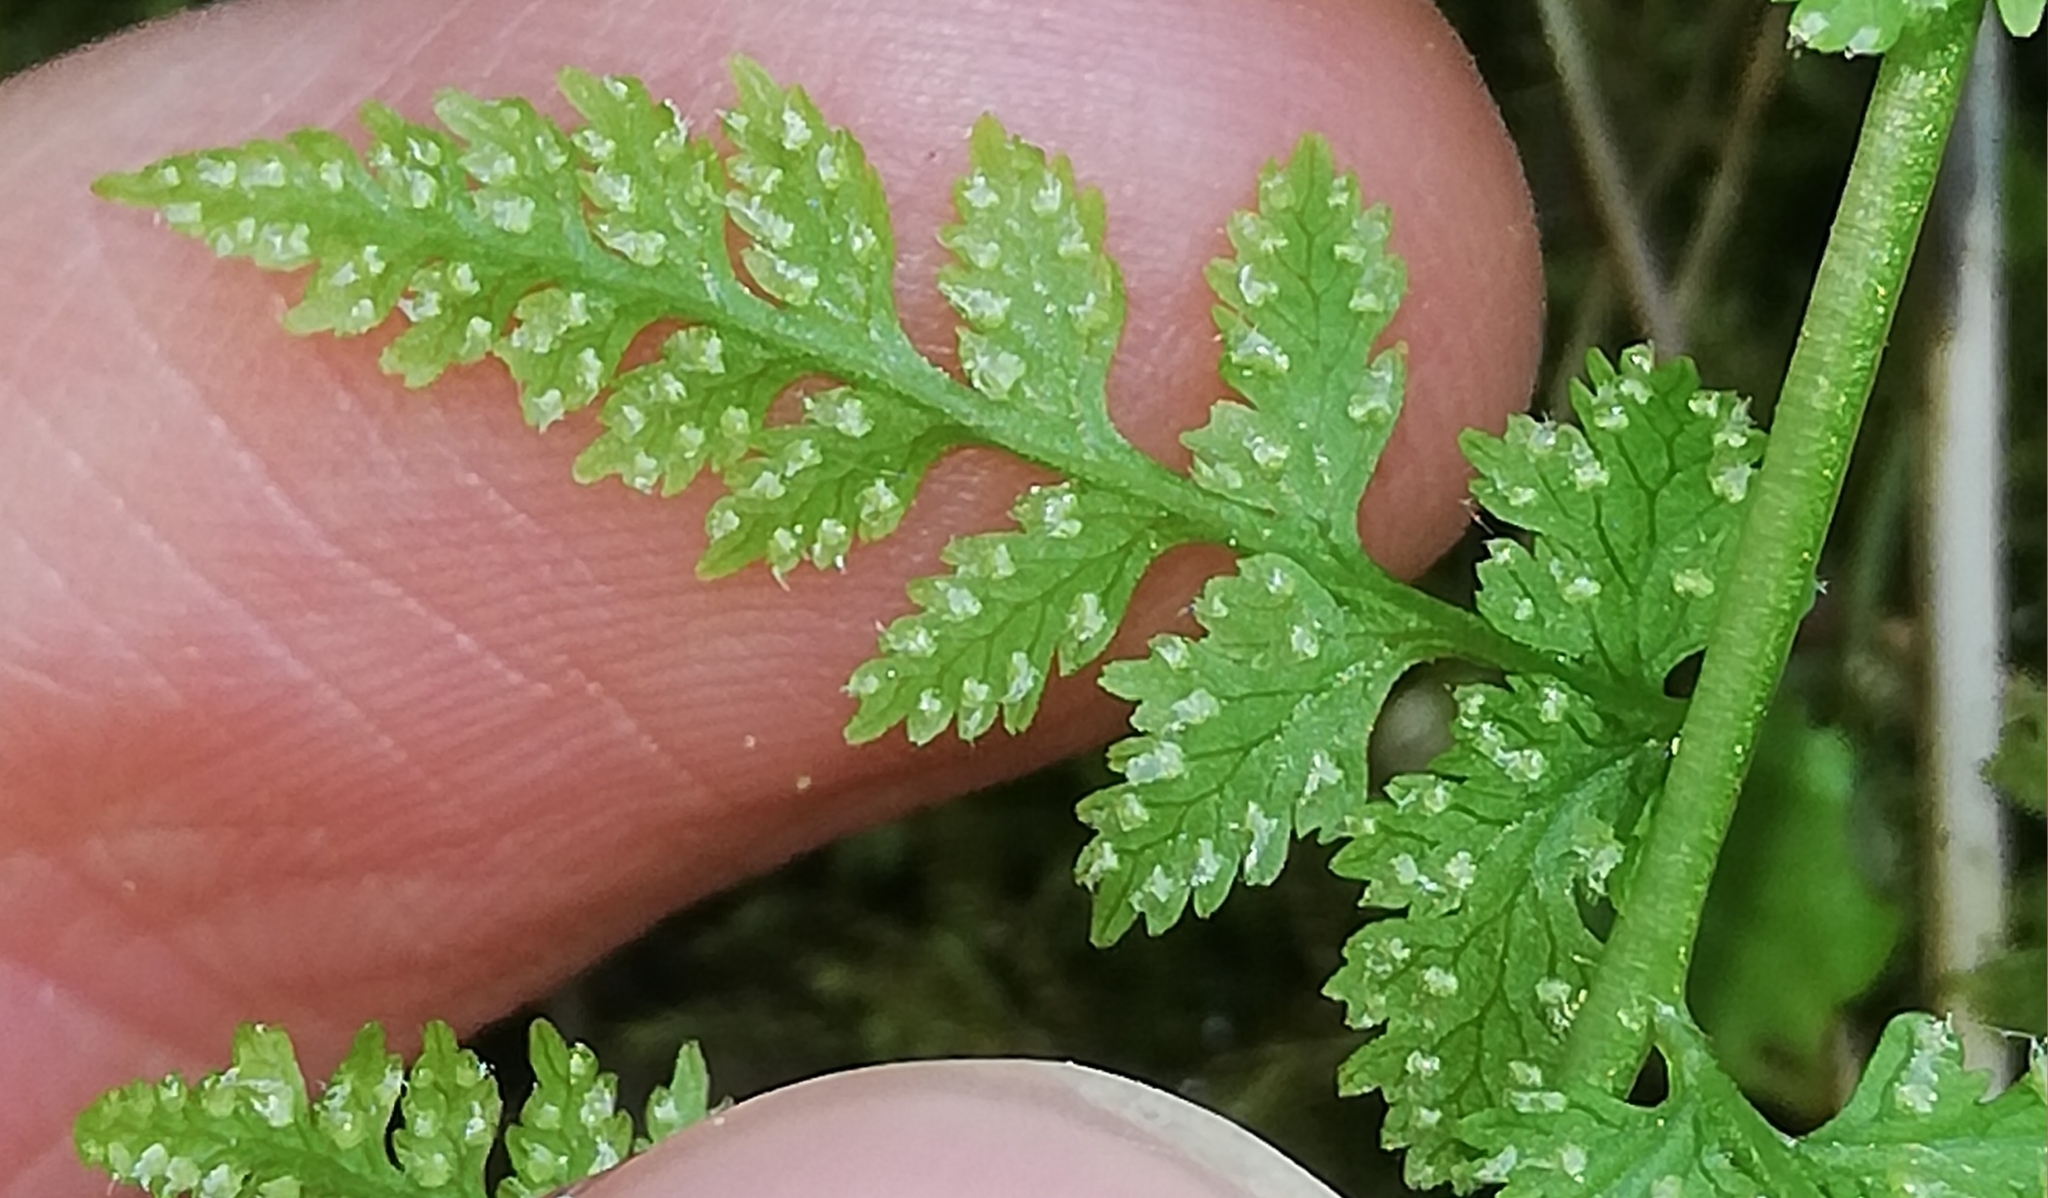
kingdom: Plantae
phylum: Tracheophyta
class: Polypodiopsida
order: Polypodiales
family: Cystopteridaceae
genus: Cystopteris
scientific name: Cystopteris fragilis
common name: Brittle bladder fern
